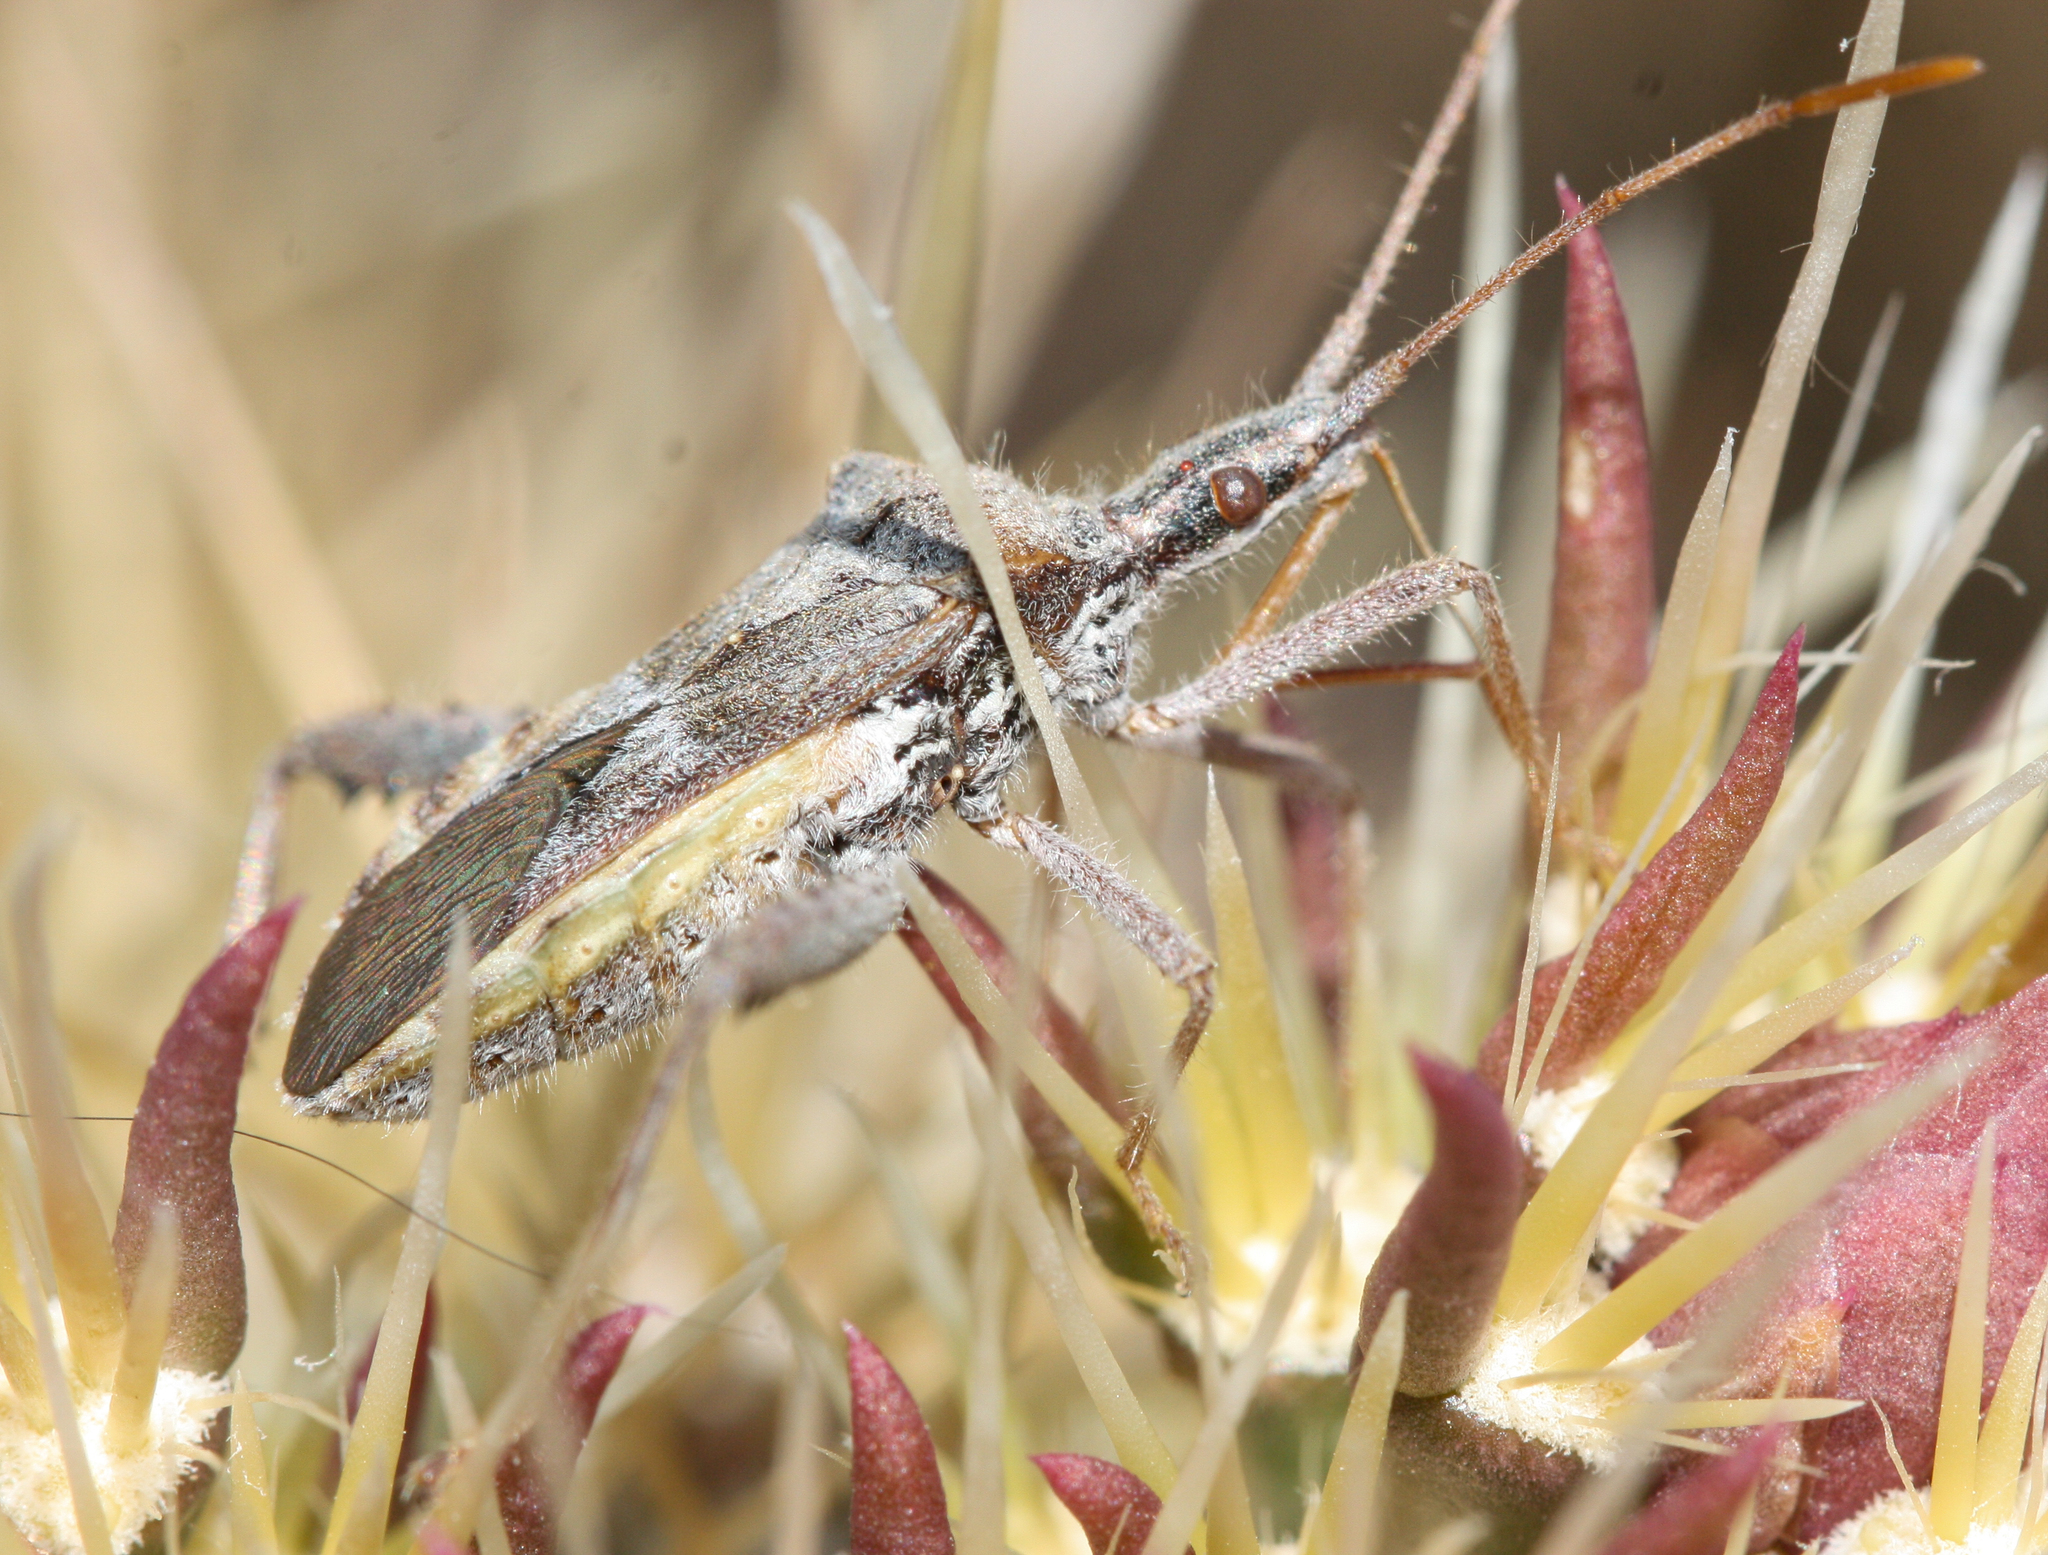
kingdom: Animalia
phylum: Arthropoda
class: Insecta
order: Hemiptera
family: Coreidae
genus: Narnia
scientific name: Narnia femorata
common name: Leaf-footed cactus bug
